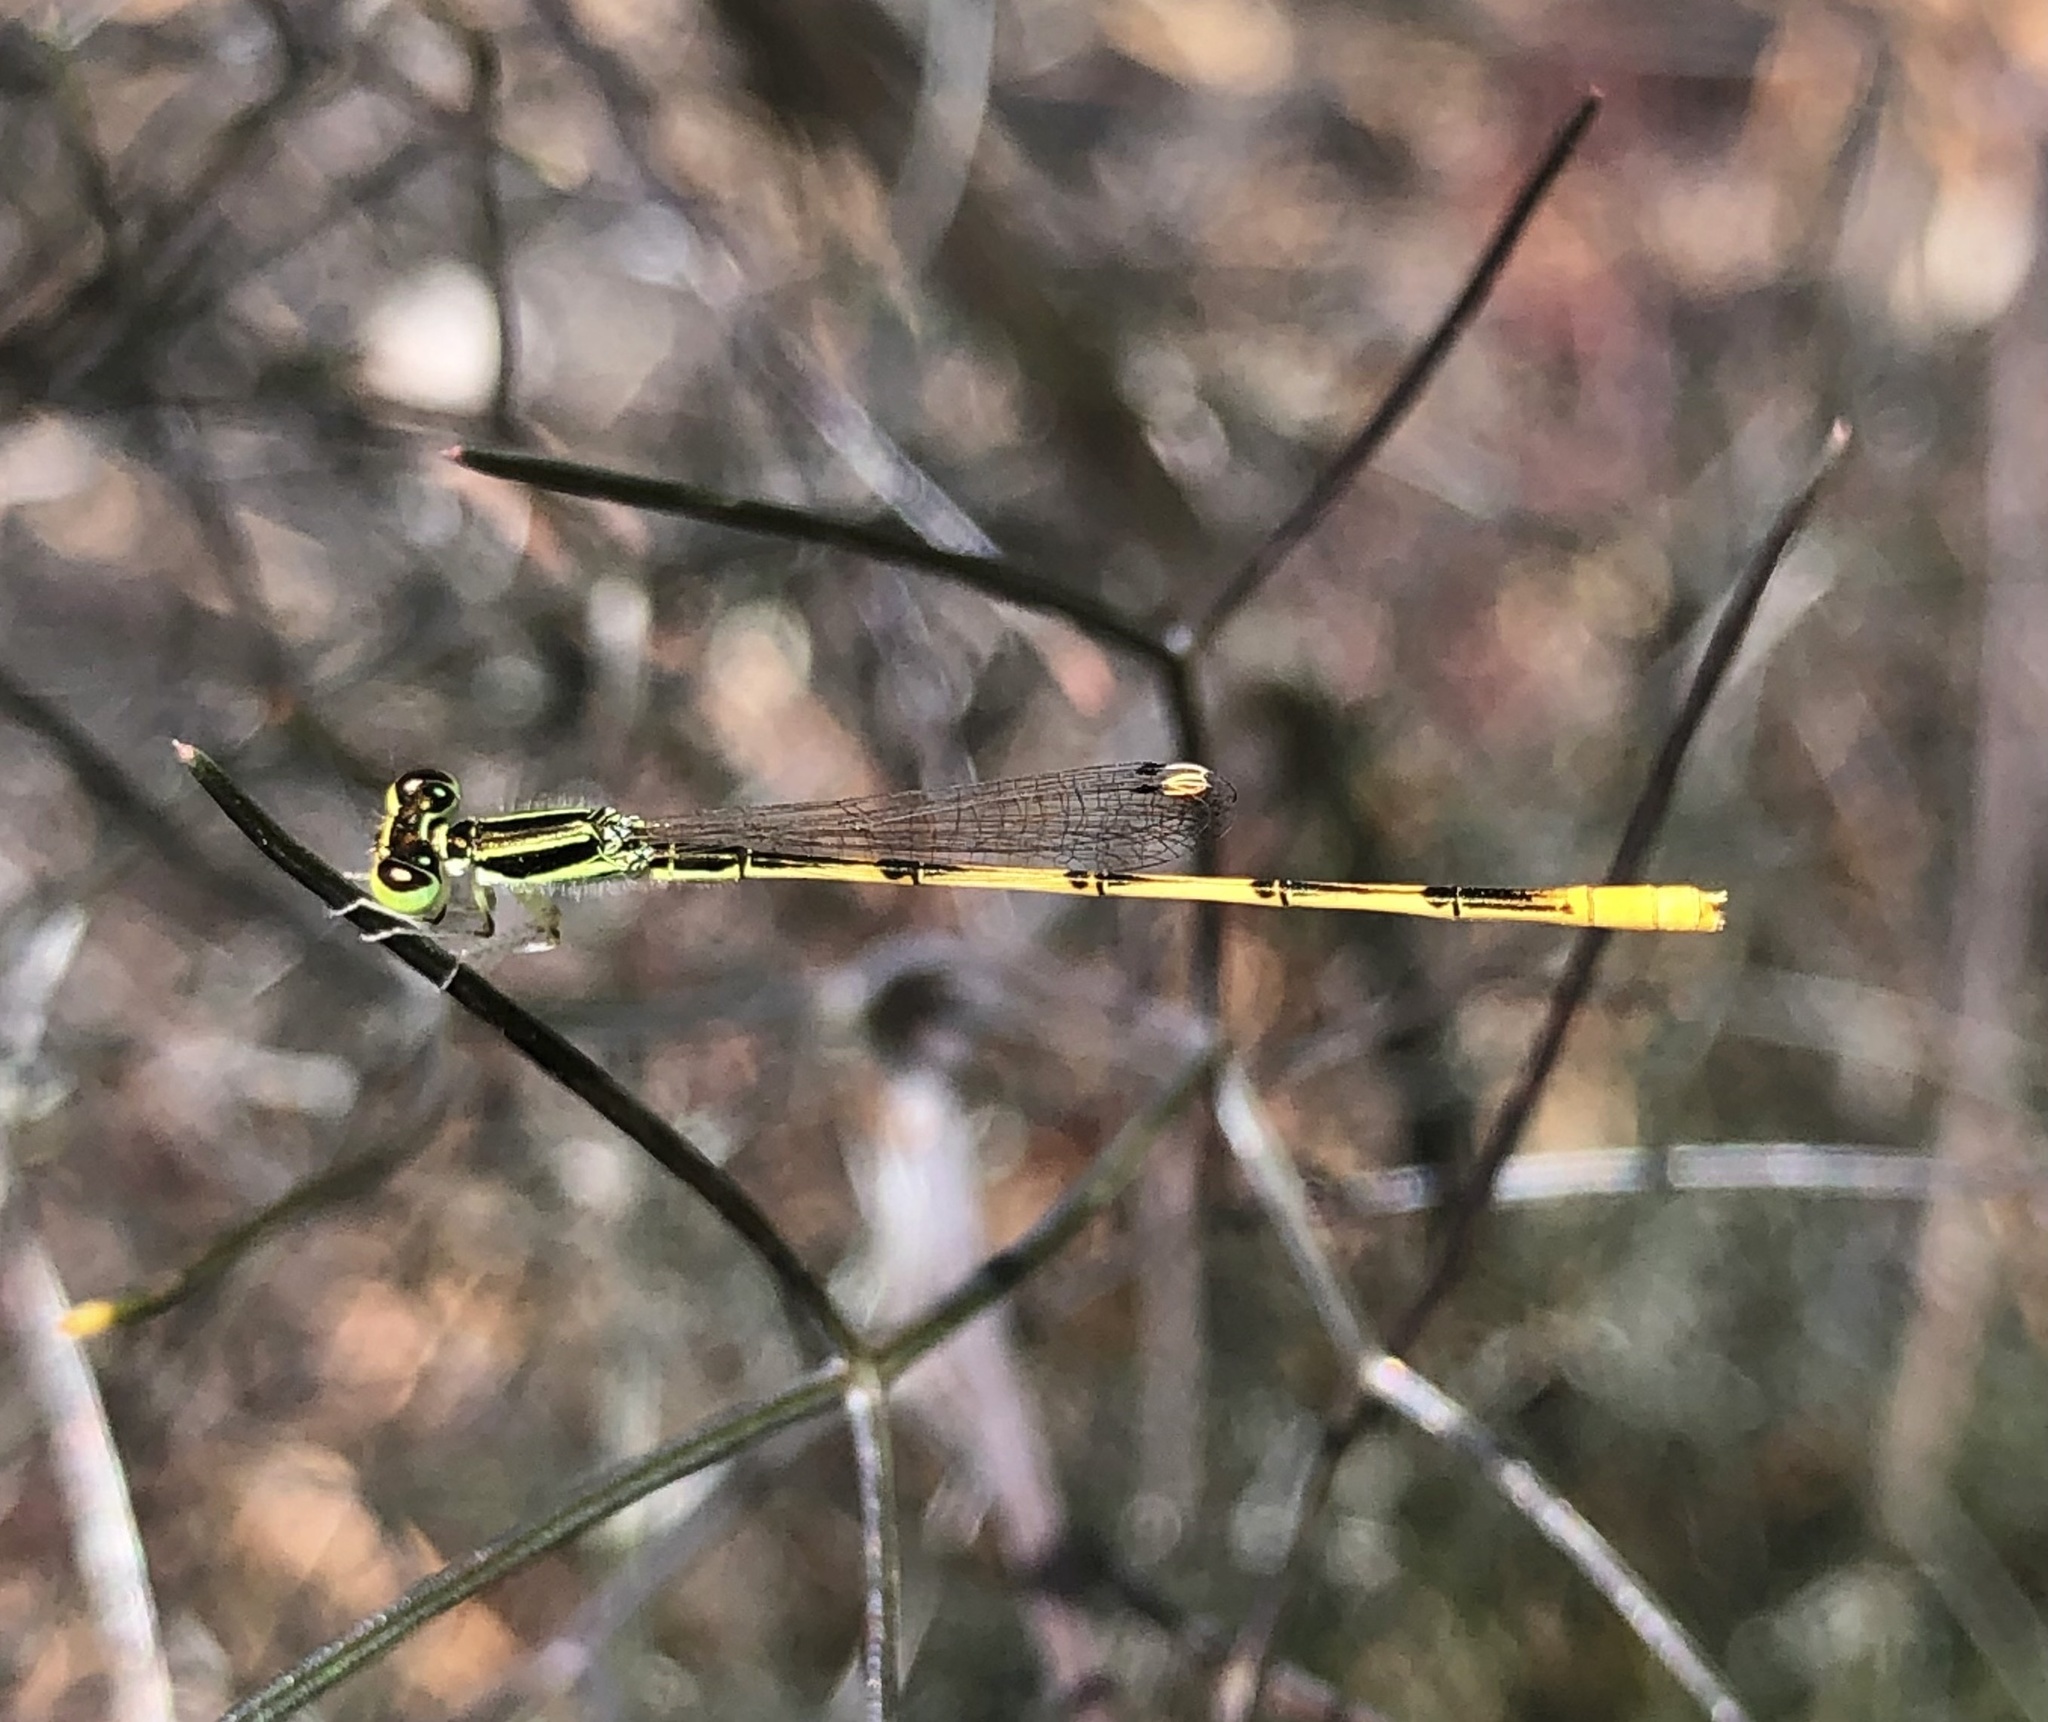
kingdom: Animalia
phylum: Arthropoda
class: Insecta
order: Odonata
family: Coenagrionidae
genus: Ischnura
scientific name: Ischnura hastata
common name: Citrine forktail
